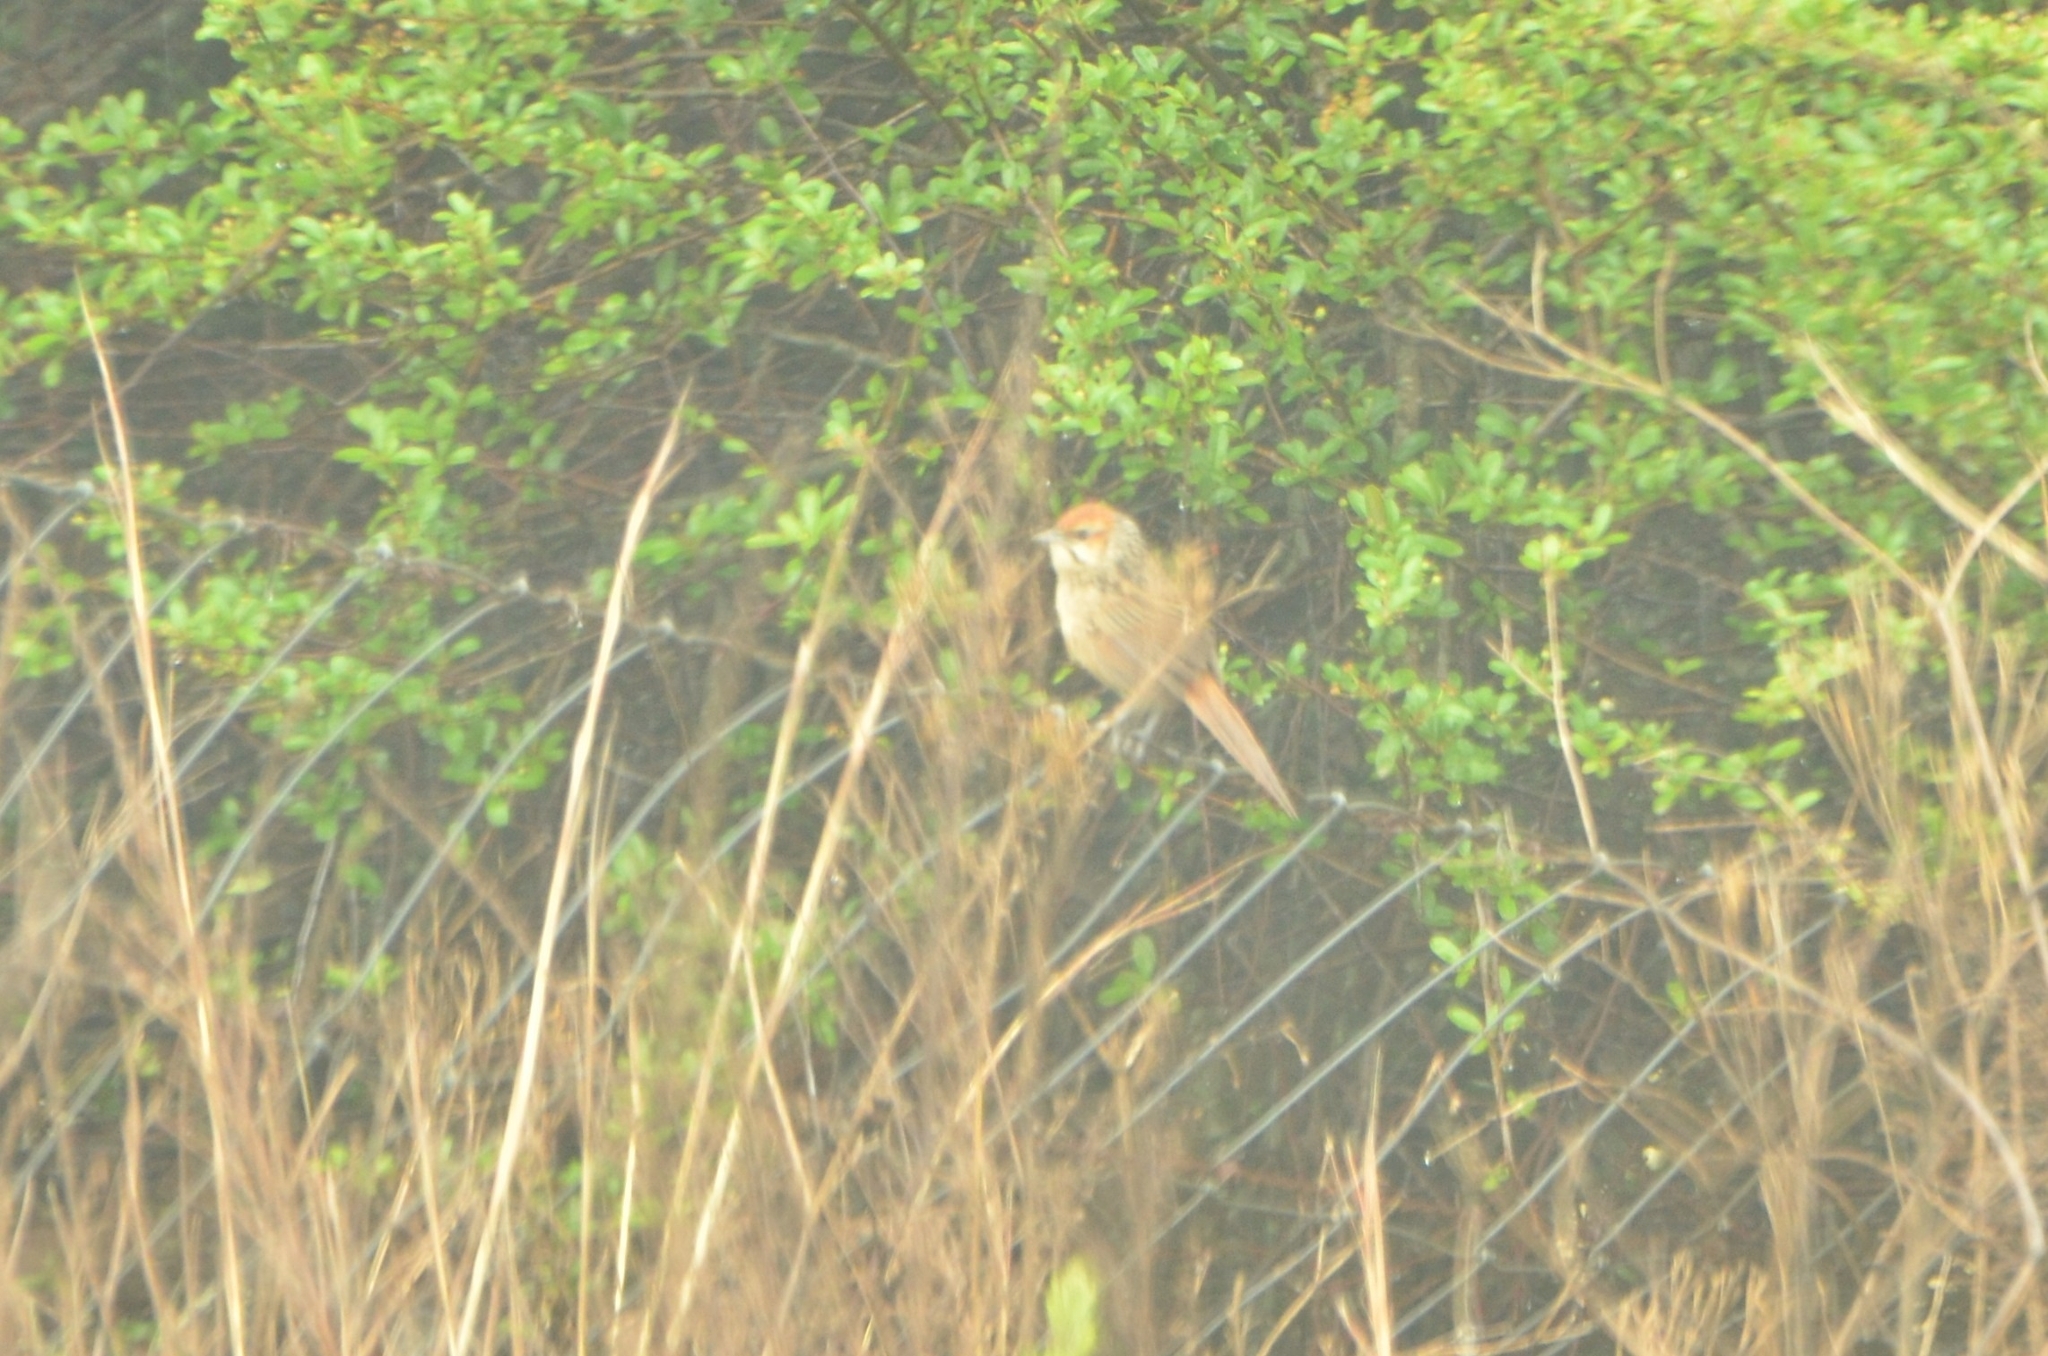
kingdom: Animalia
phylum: Chordata
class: Aves
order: Passeriformes
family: Macrosphenidae
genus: Sphenoeacus
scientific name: Sphenoeacus afer
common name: Cape grassbird
